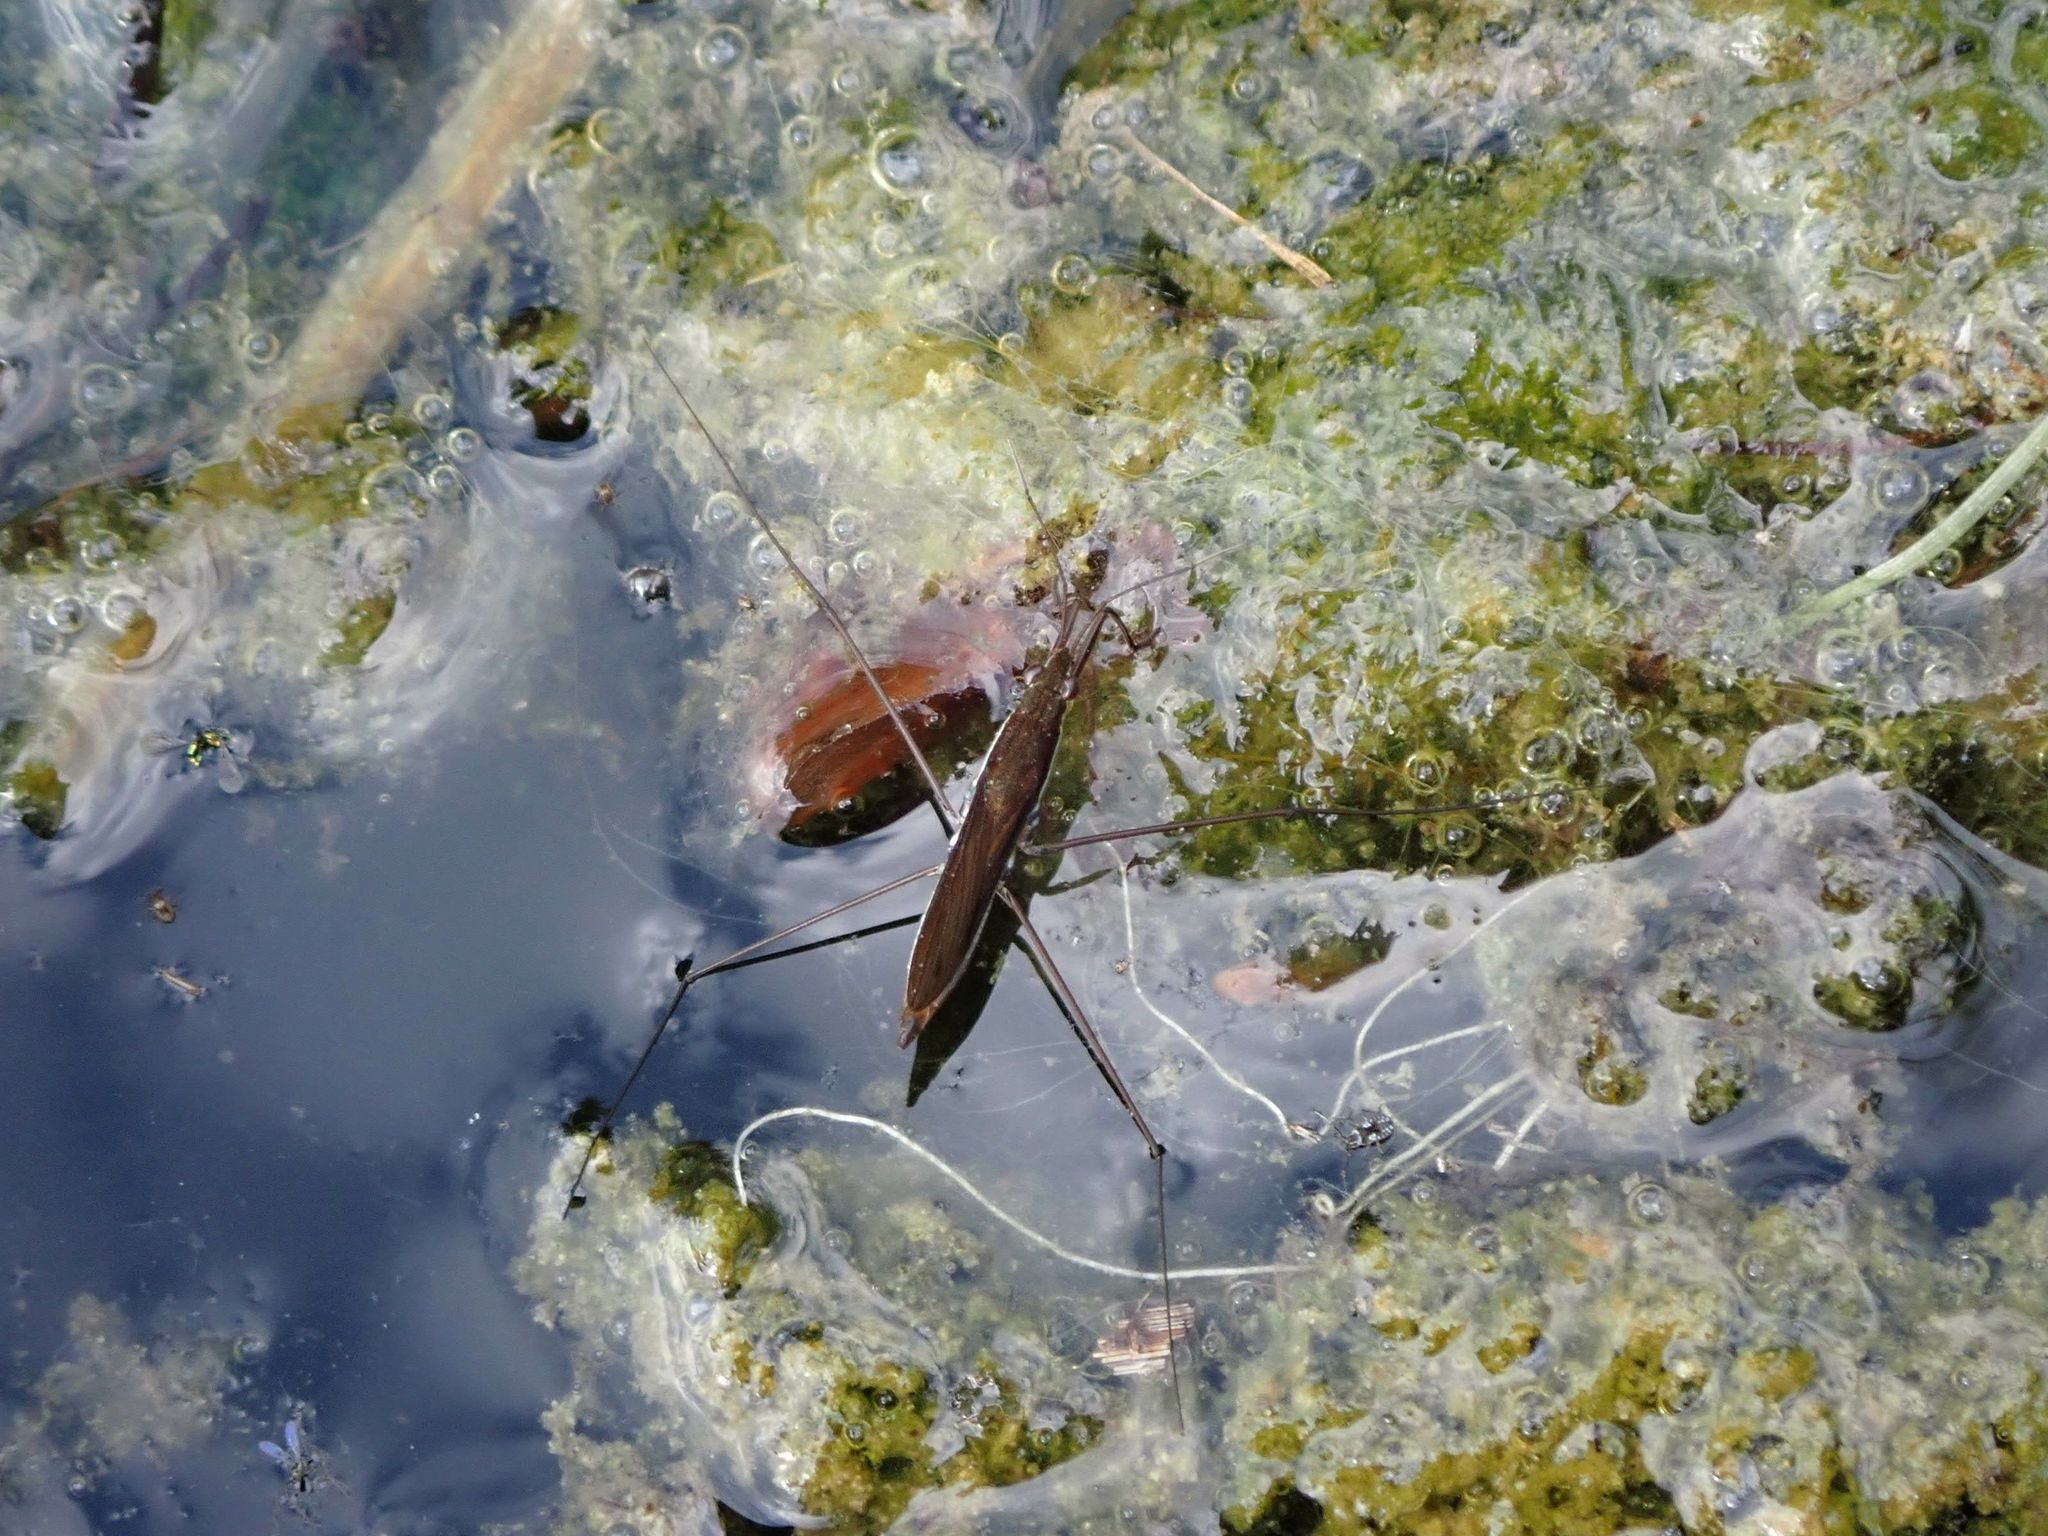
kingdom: Animalia
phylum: Arthropoda
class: Insecta
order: Hemiptera
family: Gerridae
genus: Limnoporus
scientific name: Limnoporus dissortis
